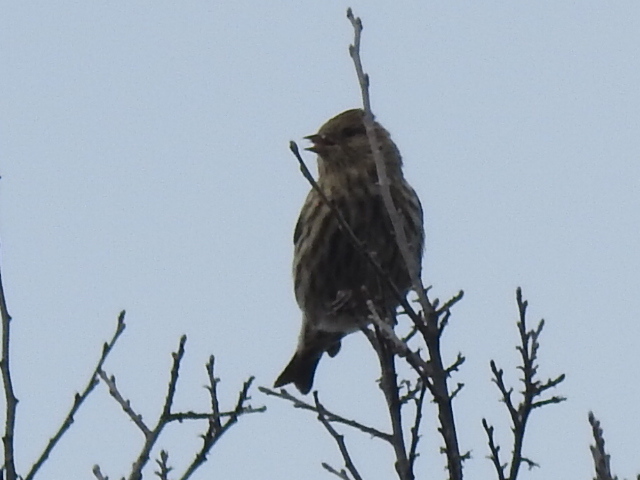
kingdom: Animalia
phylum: Chordata
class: Aves
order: Passeriformes
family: Fringillidae
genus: Spinus
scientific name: Spinus pinus
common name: Pine siskin
